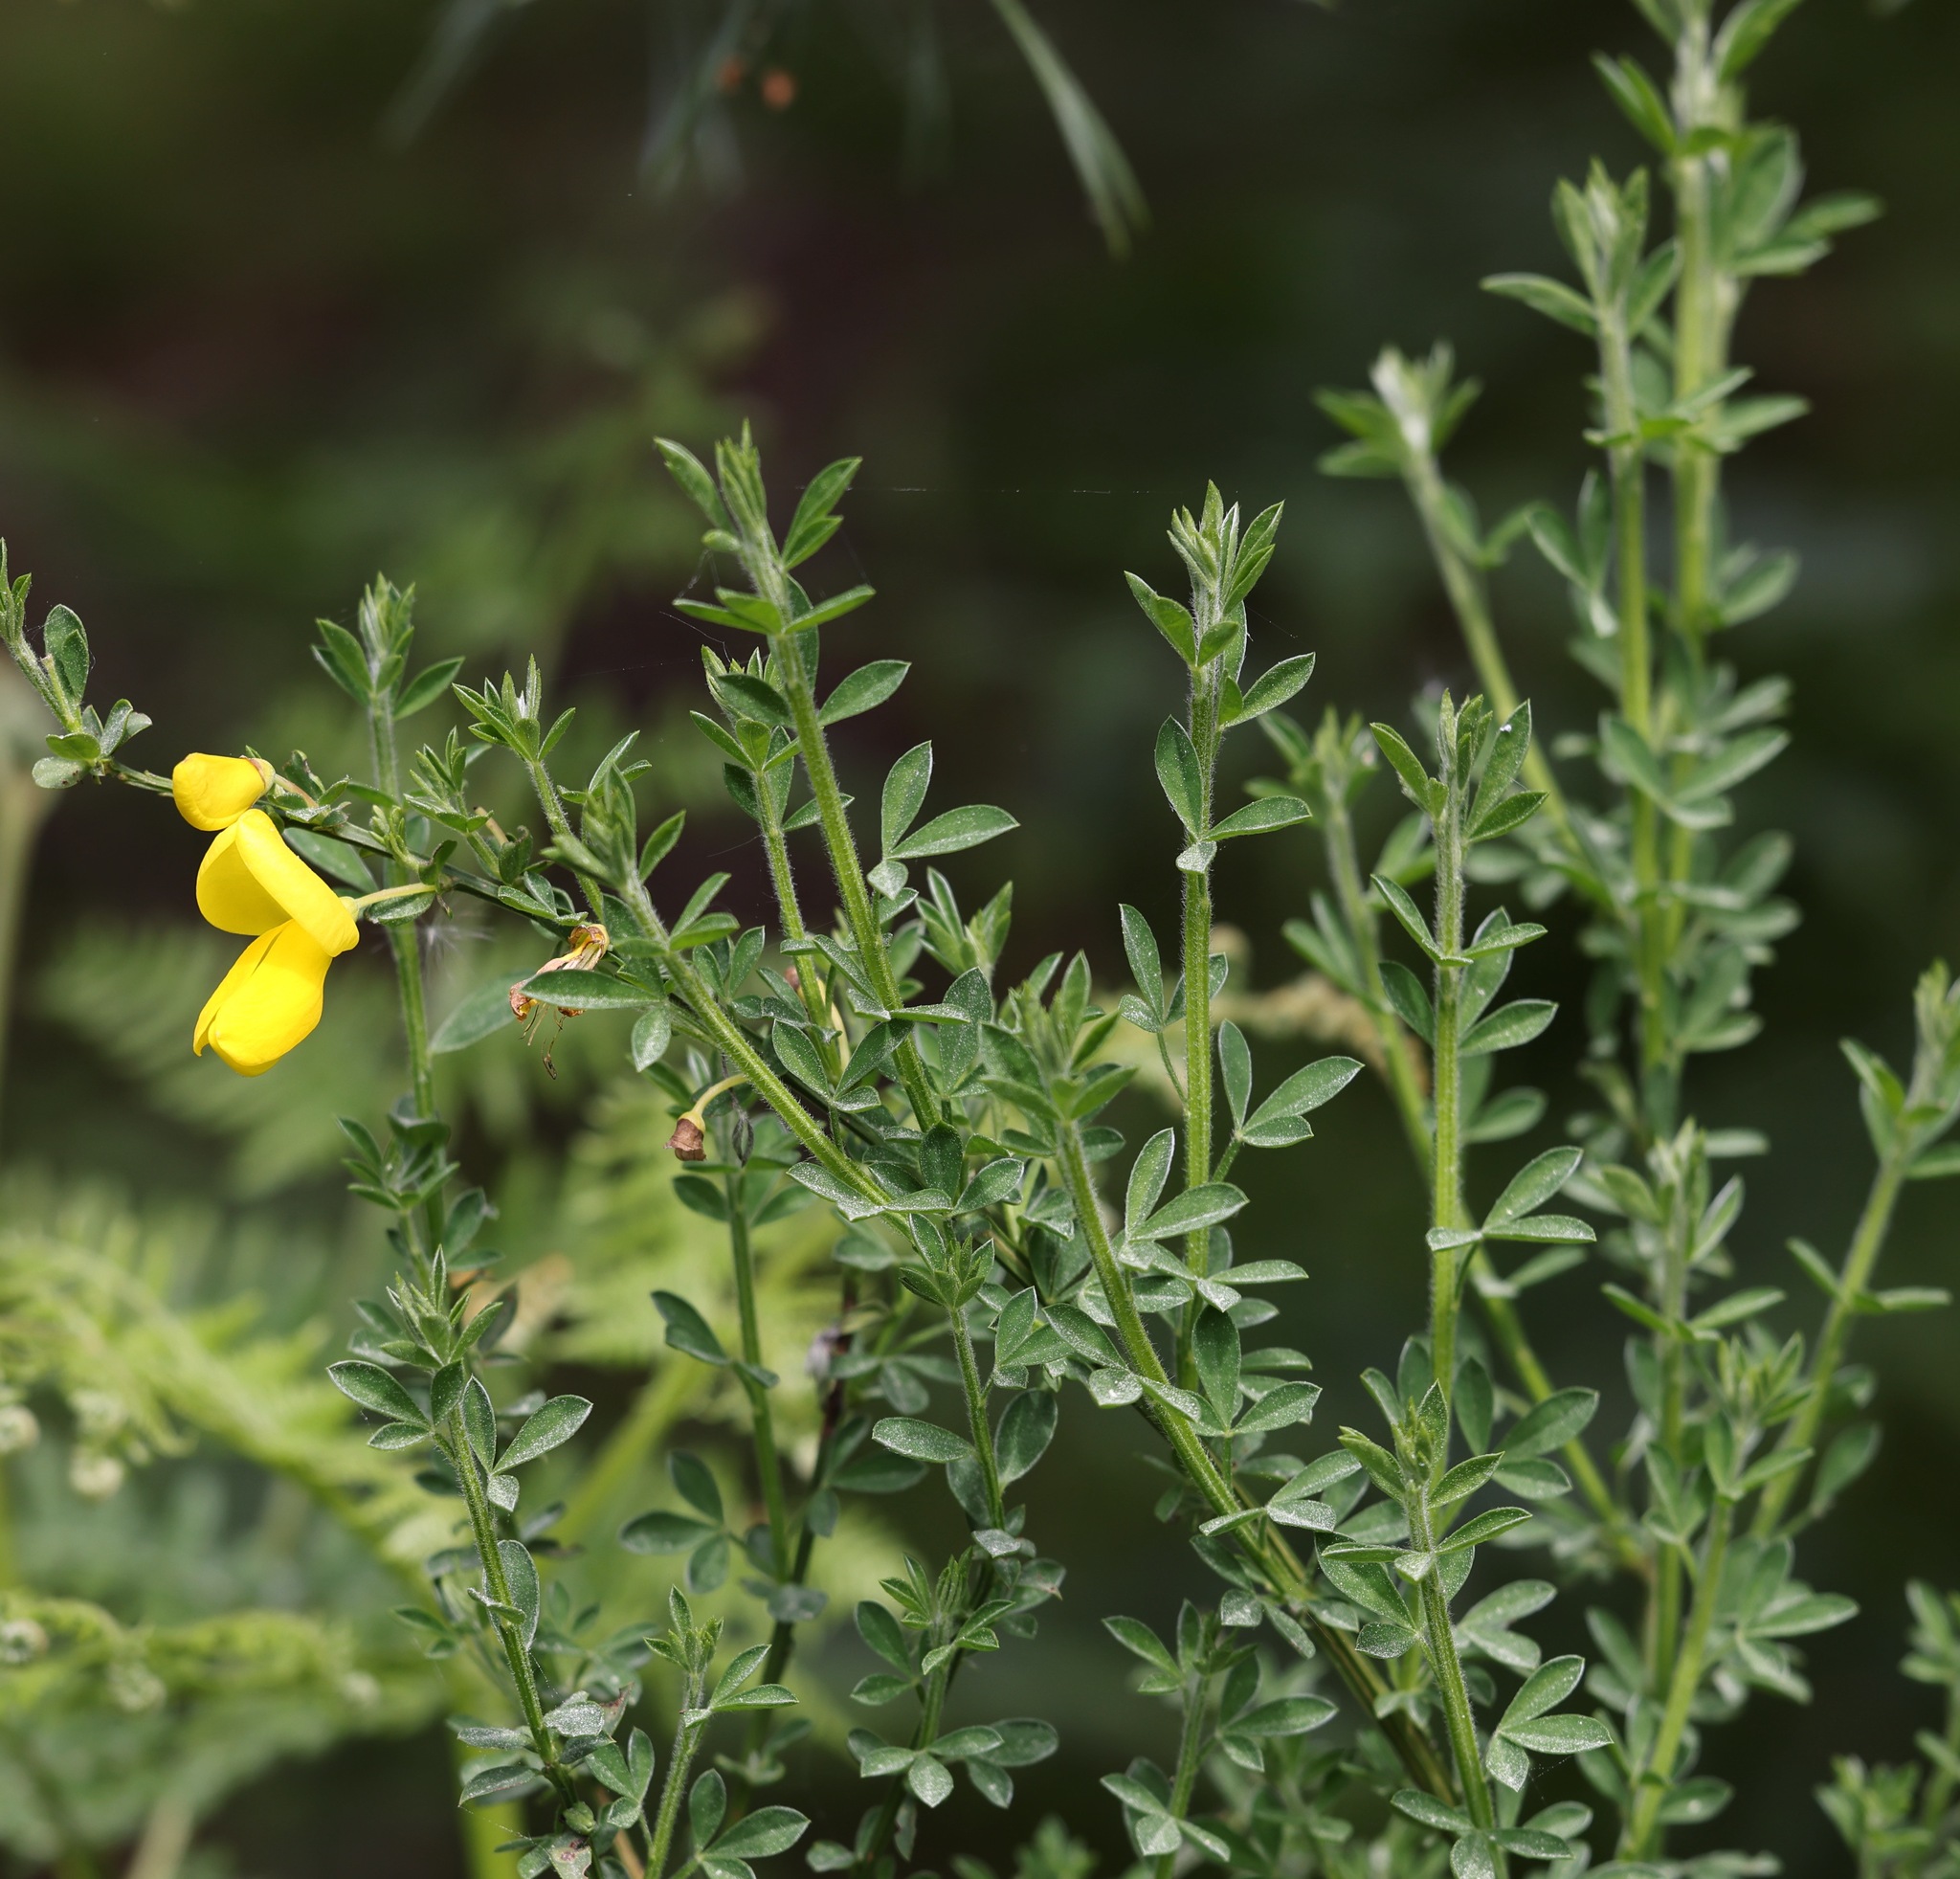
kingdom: Plantae
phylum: Tracheophyta
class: Magnoliopsida
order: Fabales
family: Fabaceae
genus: Cytisus
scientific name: Cytisus scoparius
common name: Scotch broom
